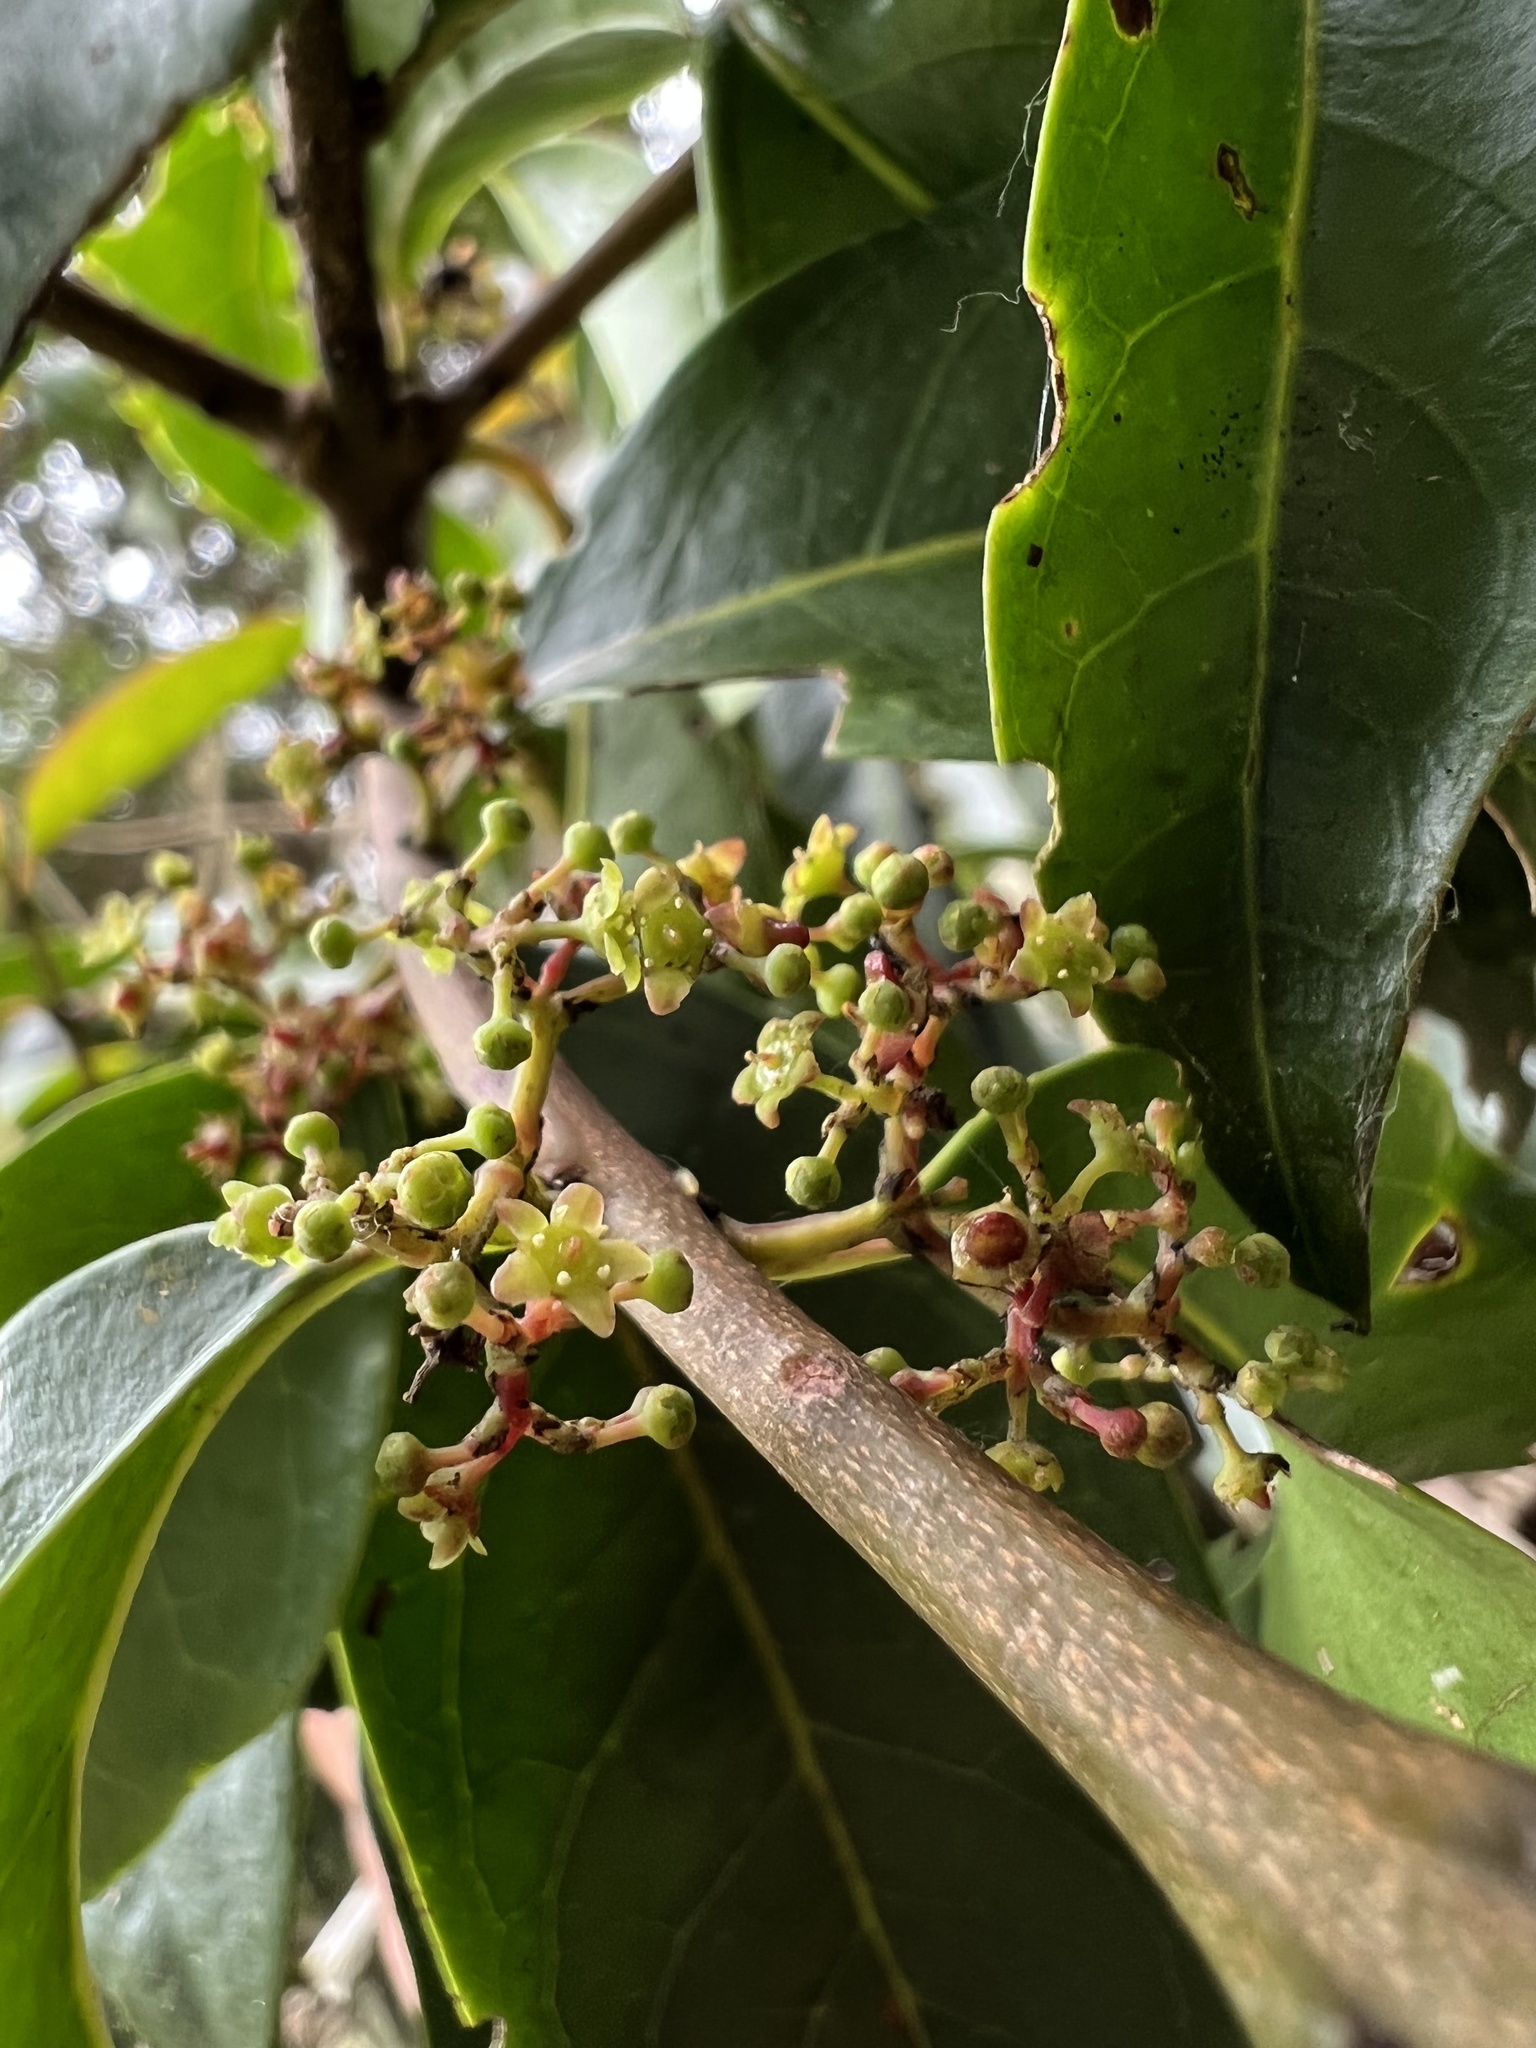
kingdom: Plantae
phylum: Tracheophyta
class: Magnoliopsida
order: Celastrales
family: Celastraceae
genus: Zinowiewia
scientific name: Zinowiewia australis
